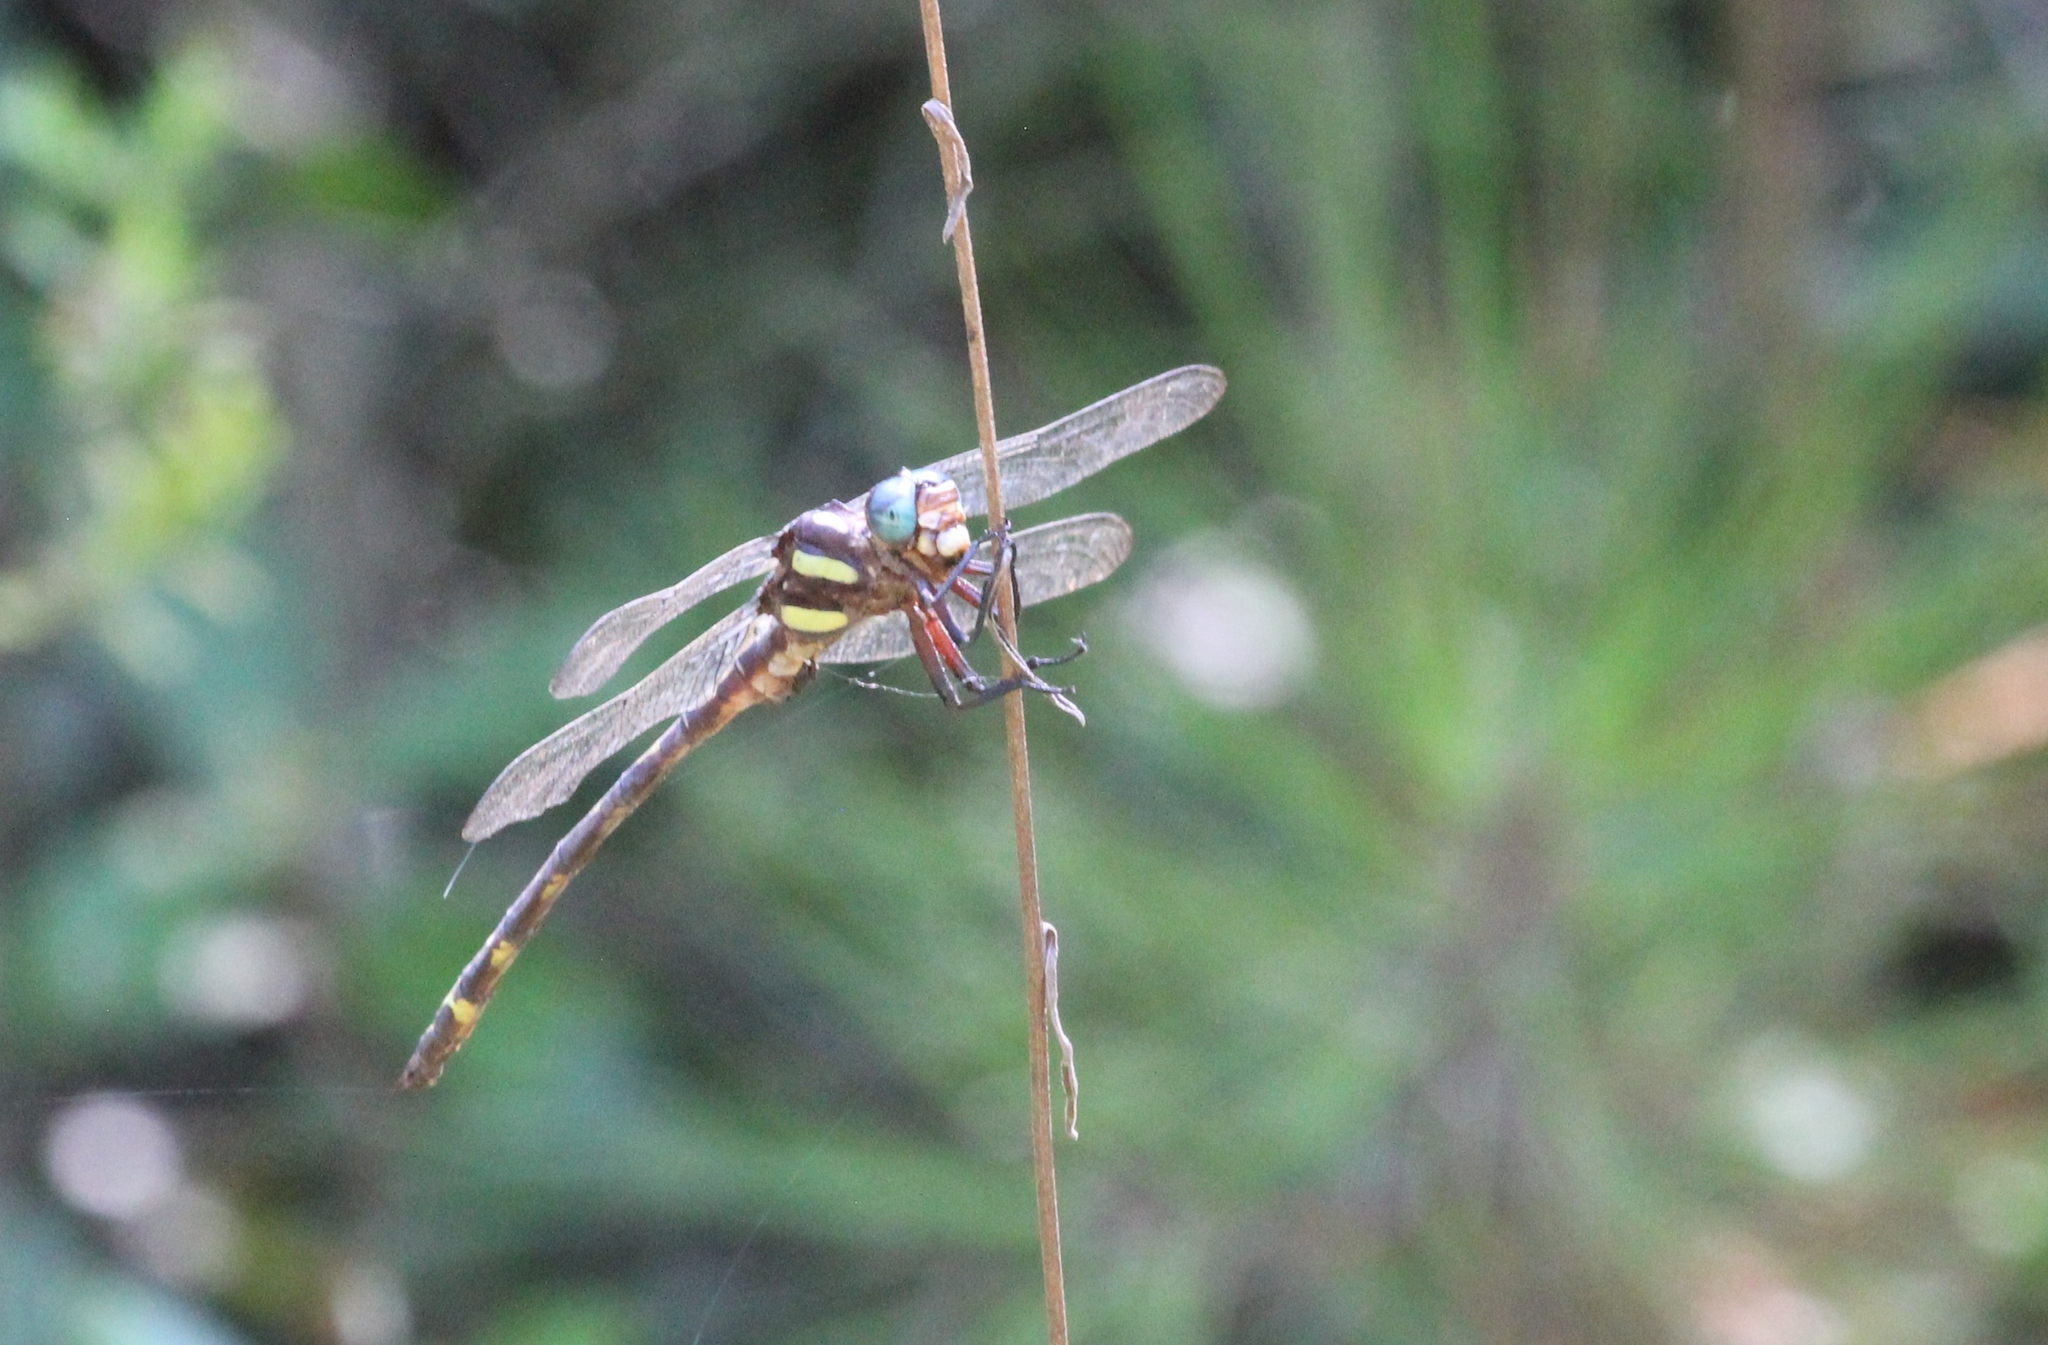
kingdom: Animalia
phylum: Arthropoda
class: Insecta
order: Odonata
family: Cordulegastridae
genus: Cordulegaster
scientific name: Cordulegaster obliqua
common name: Arrowhead spiketail
